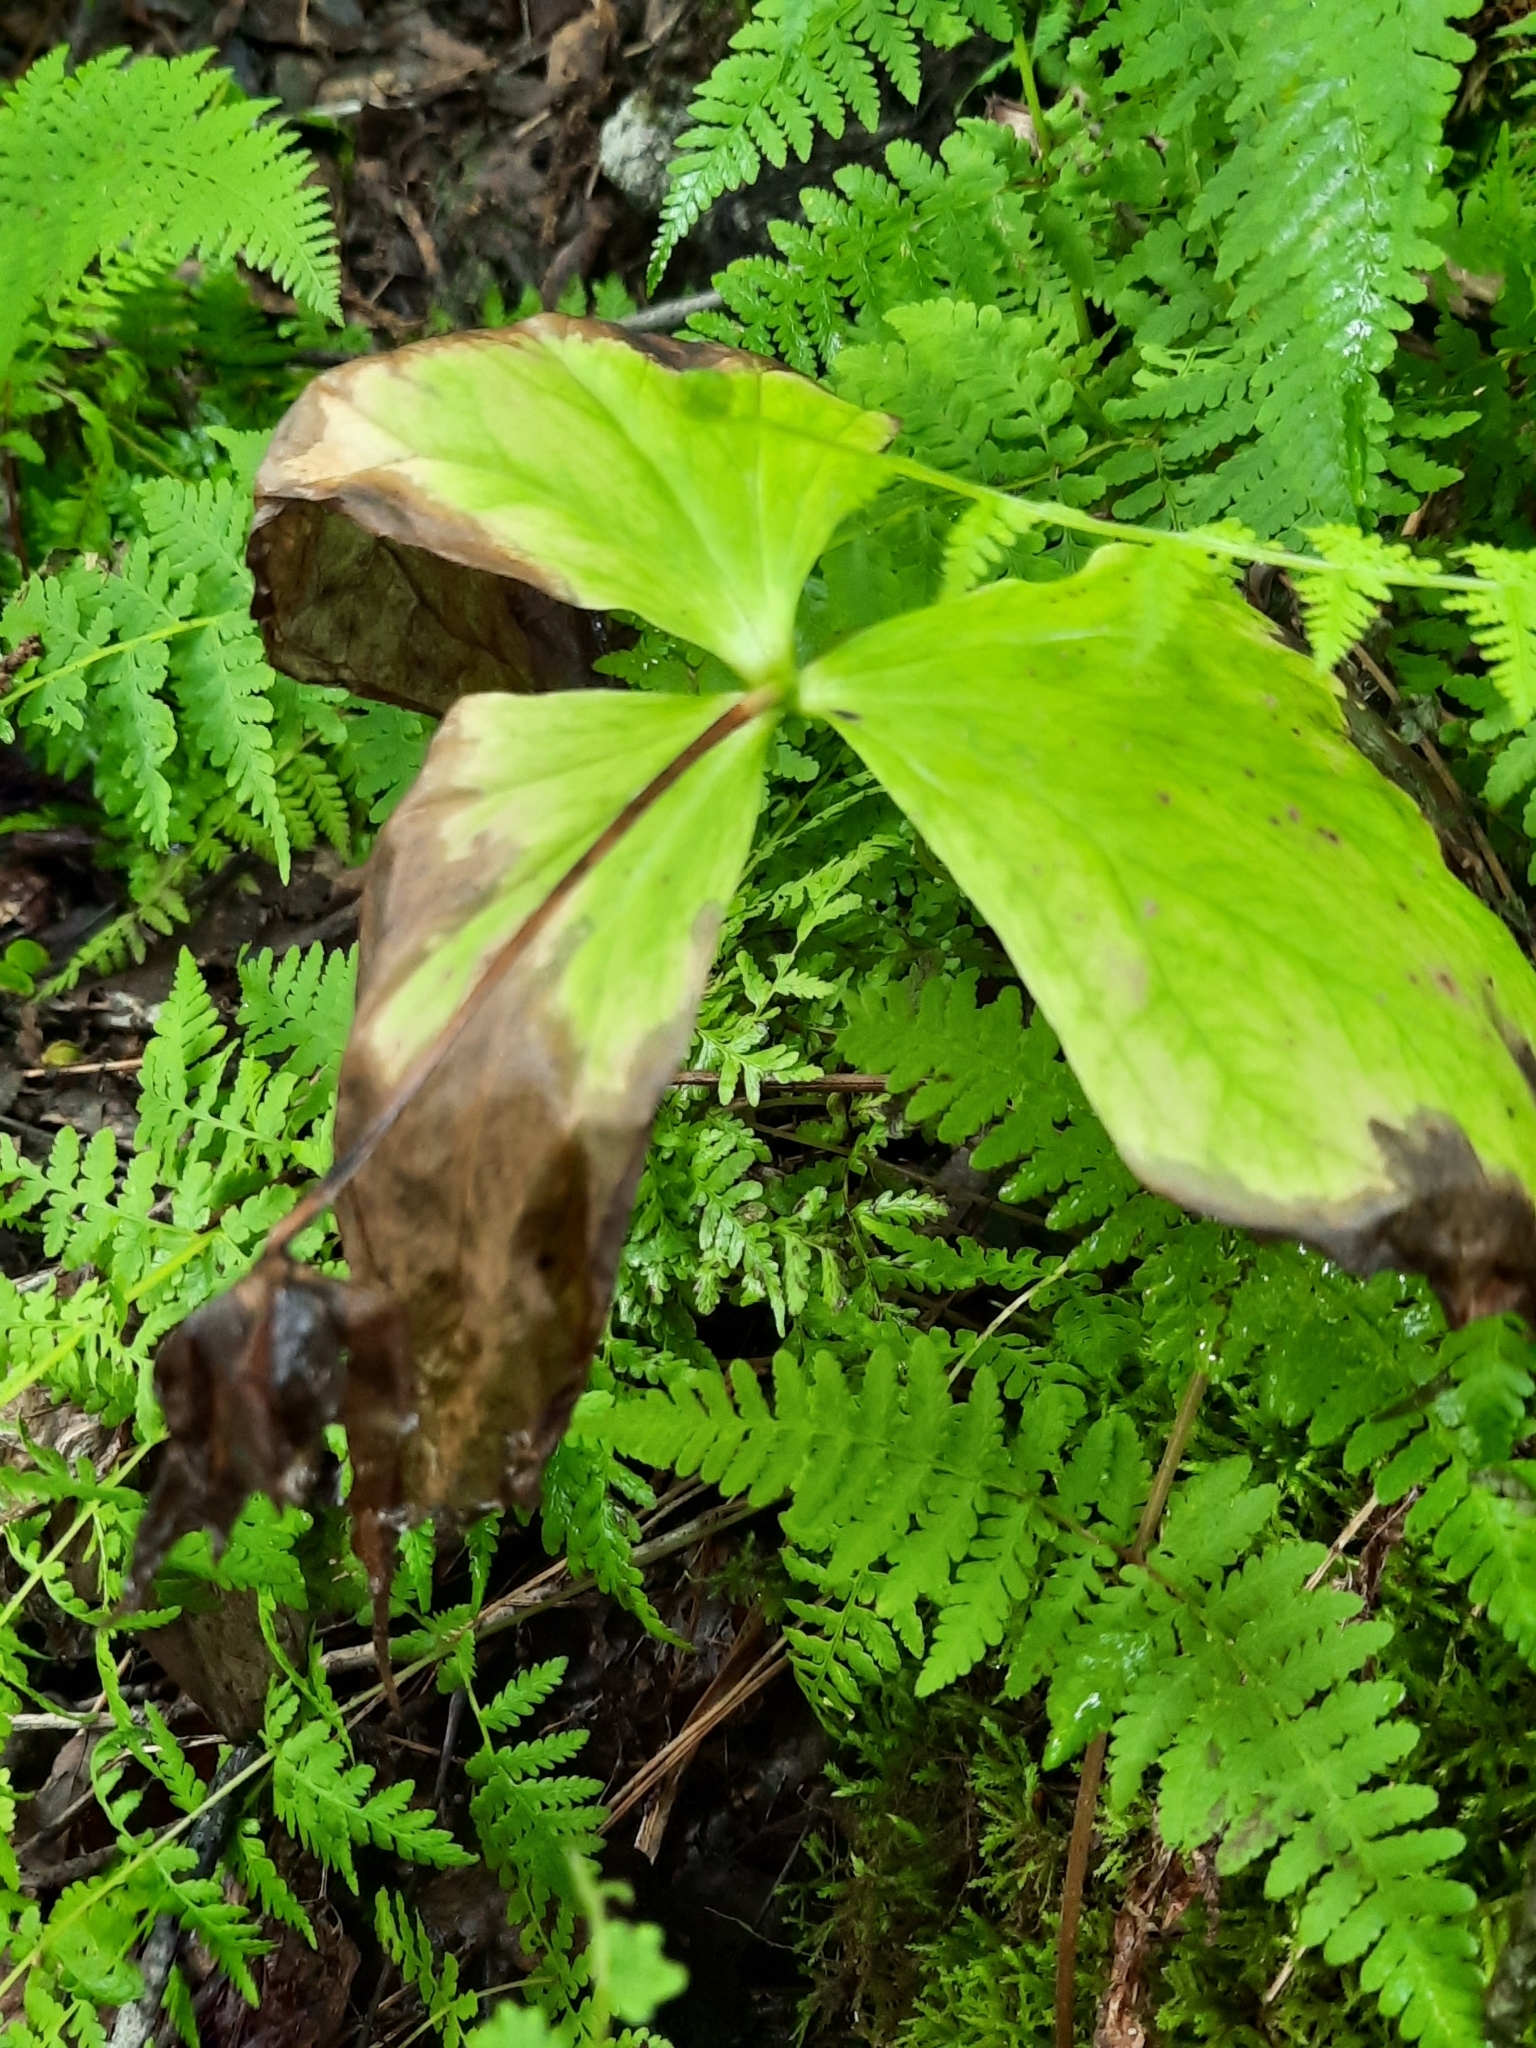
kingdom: Plantae
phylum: Tracheophyta
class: Liliopsida
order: Liliales
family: Melanthiaceae
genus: Trillium
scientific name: Trillium erectum
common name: Purple trillium
